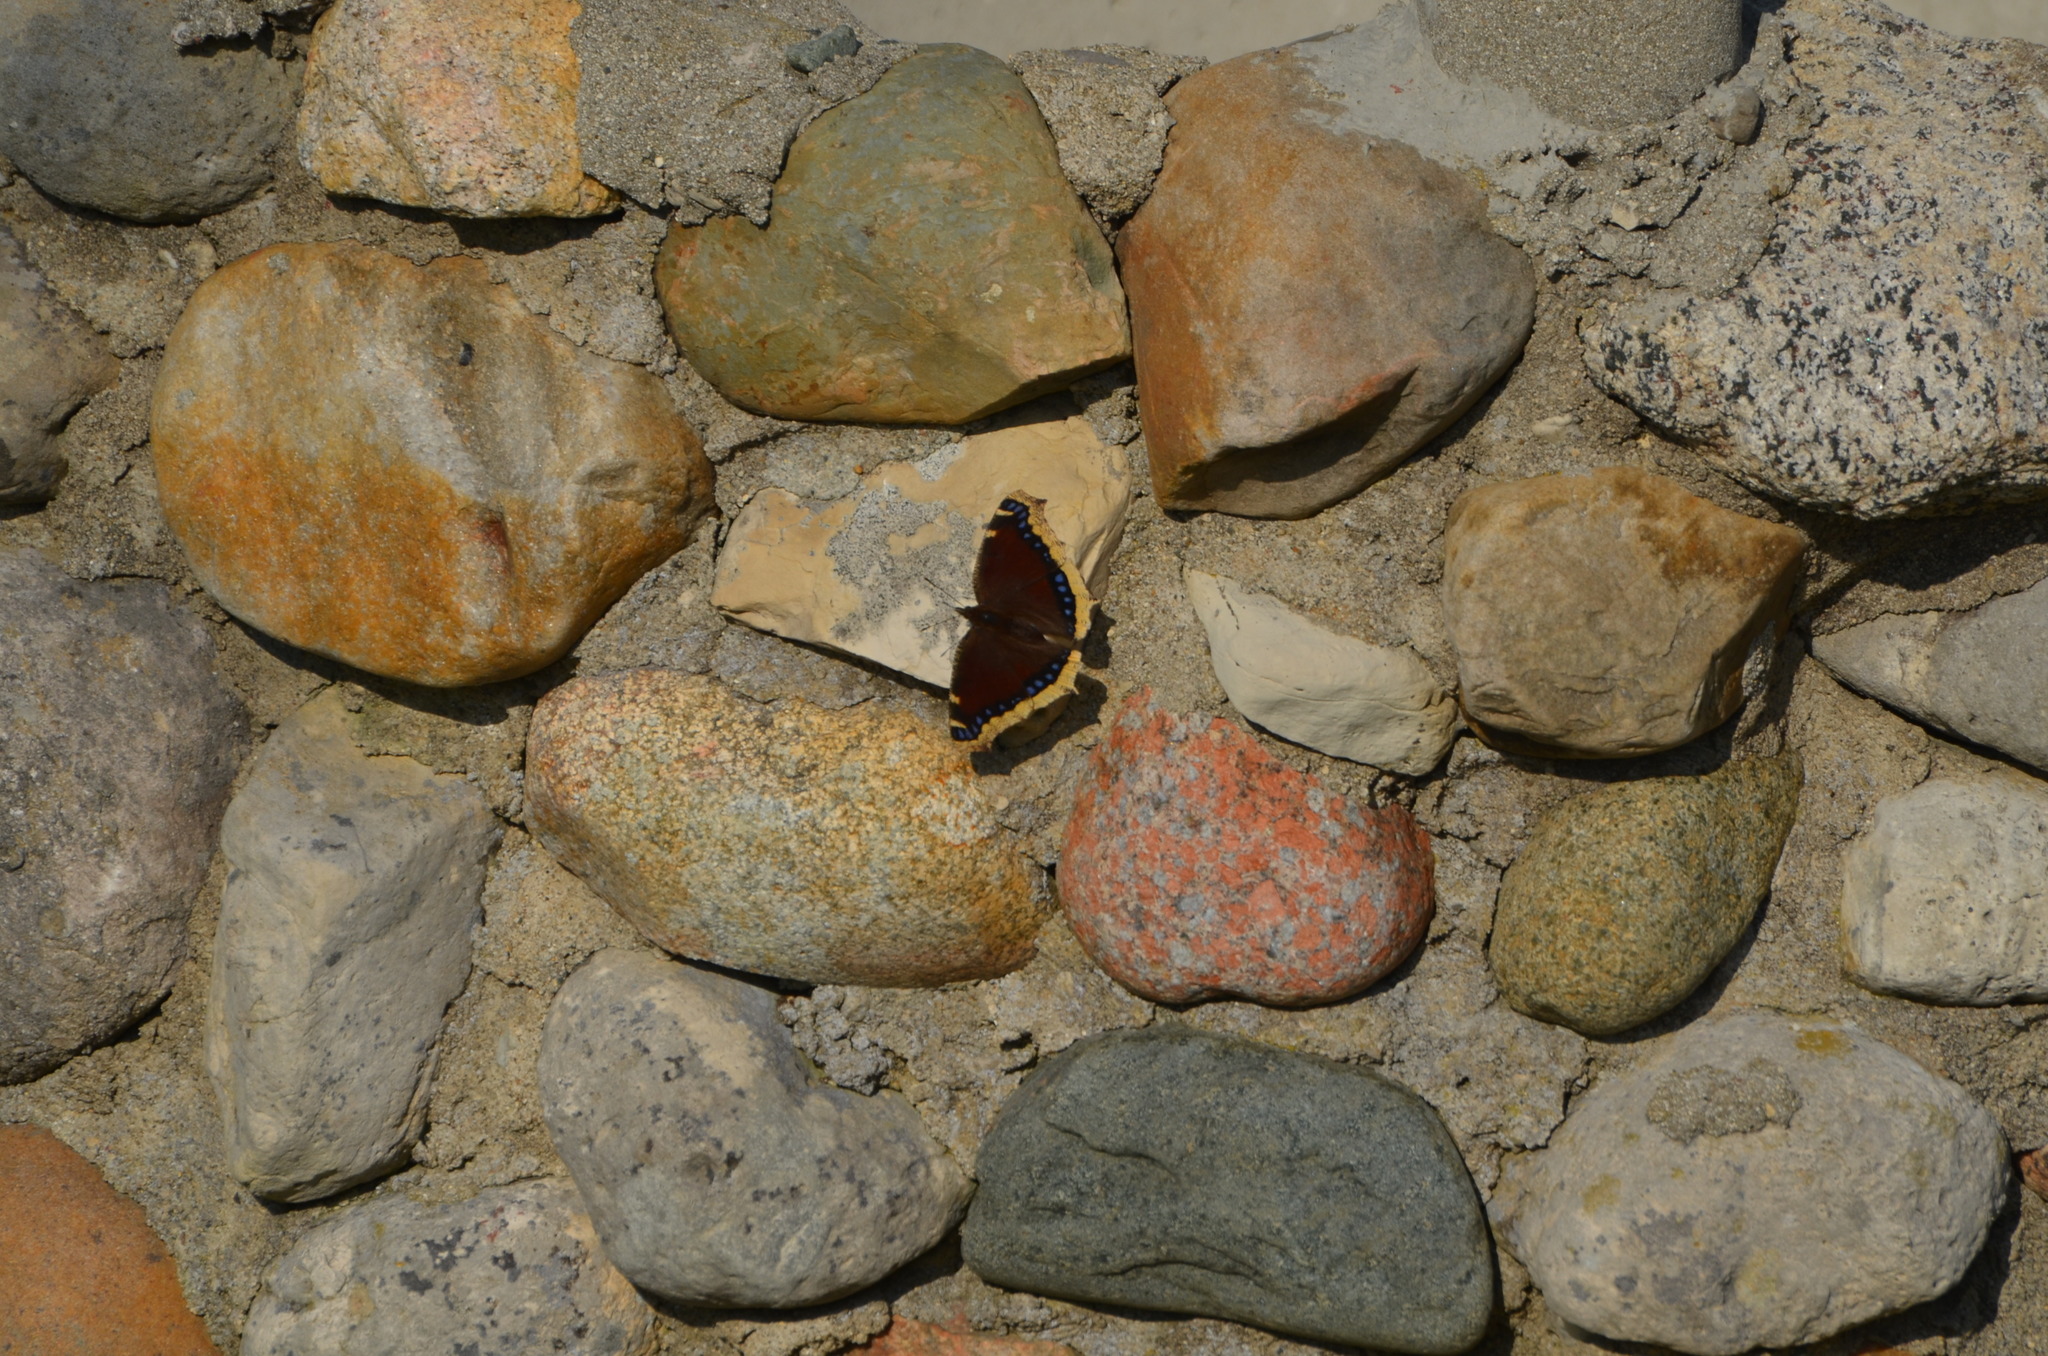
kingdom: Animalia
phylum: Arthropoda
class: Insecta
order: Lepidoptera
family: Nymphalidae
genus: Nymphalis
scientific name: Nymphalis antiopa
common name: Camberwell beauty
